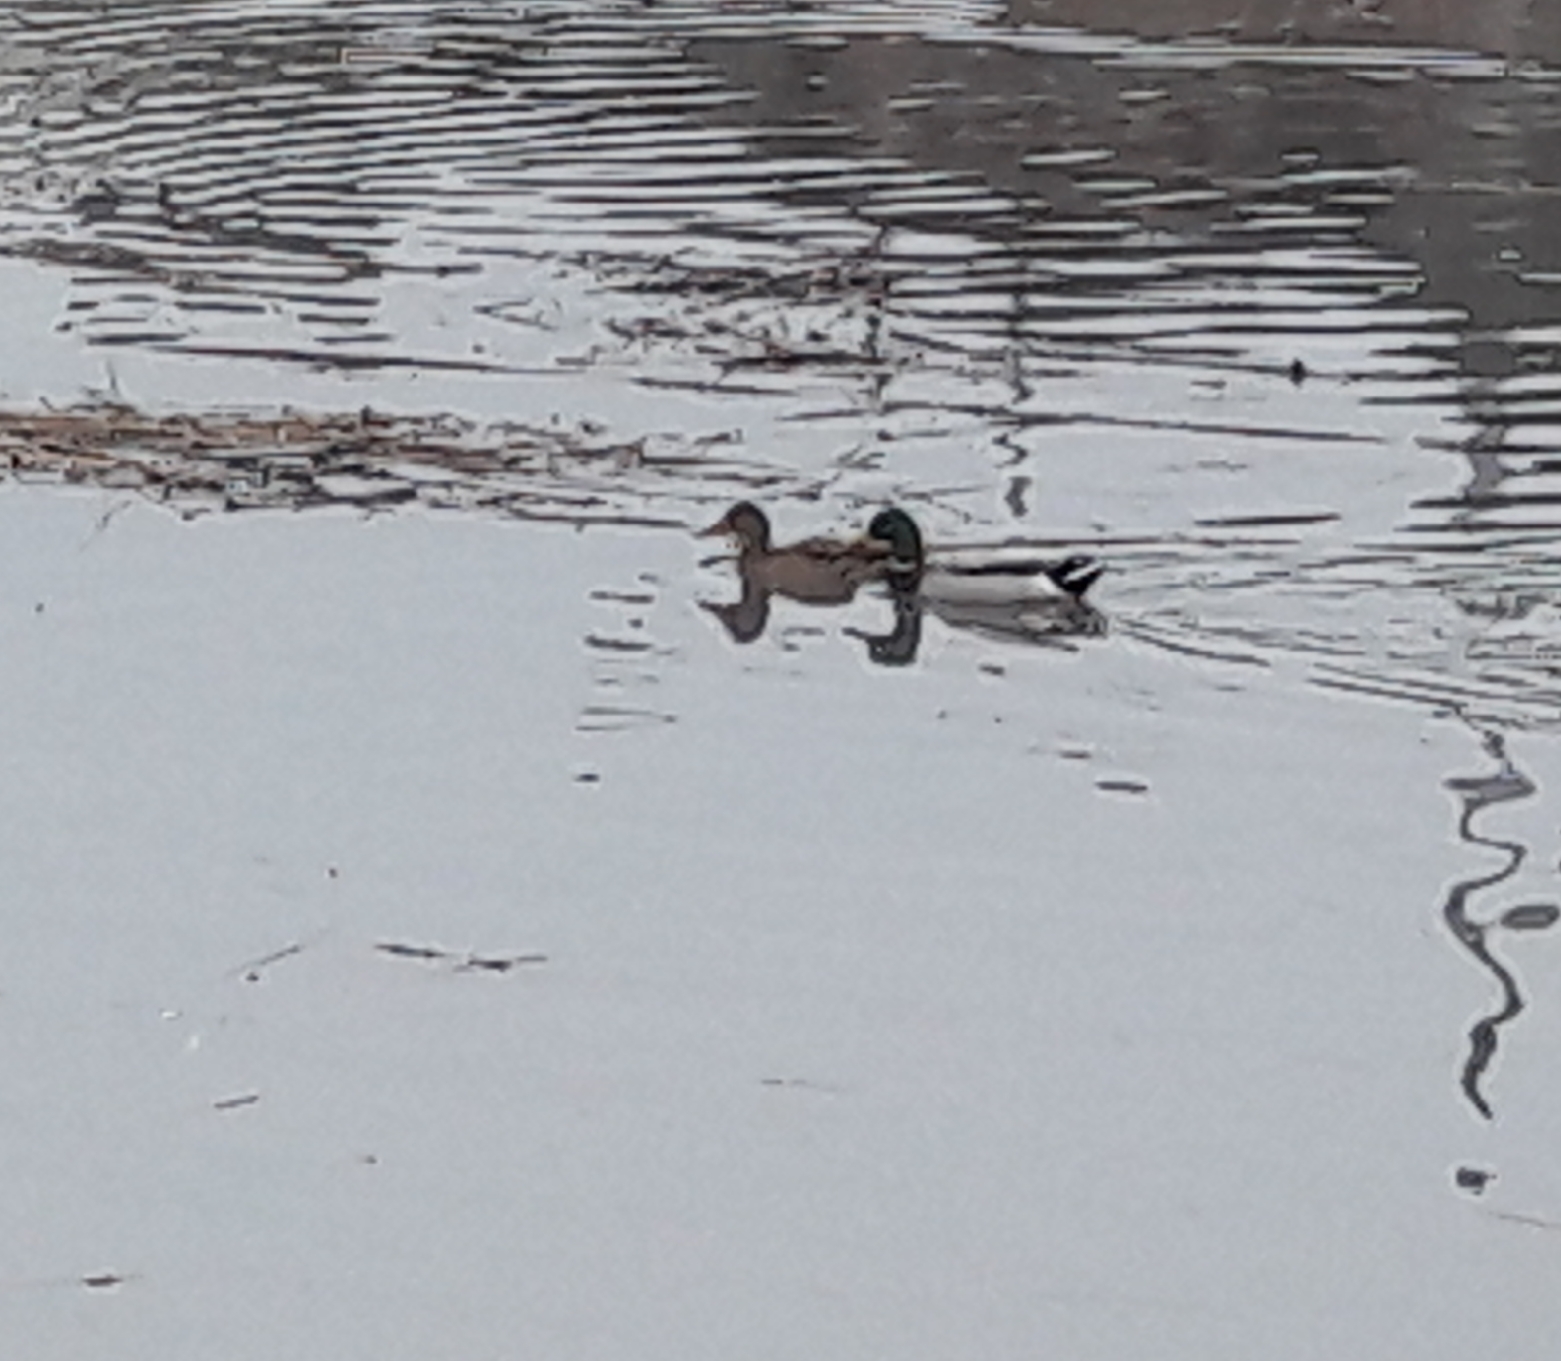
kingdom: Animalia
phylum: Chordata
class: Aves
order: Anseriformes
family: Anatidae
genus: Anas
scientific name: Anas platyrhynchos
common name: Mallard
